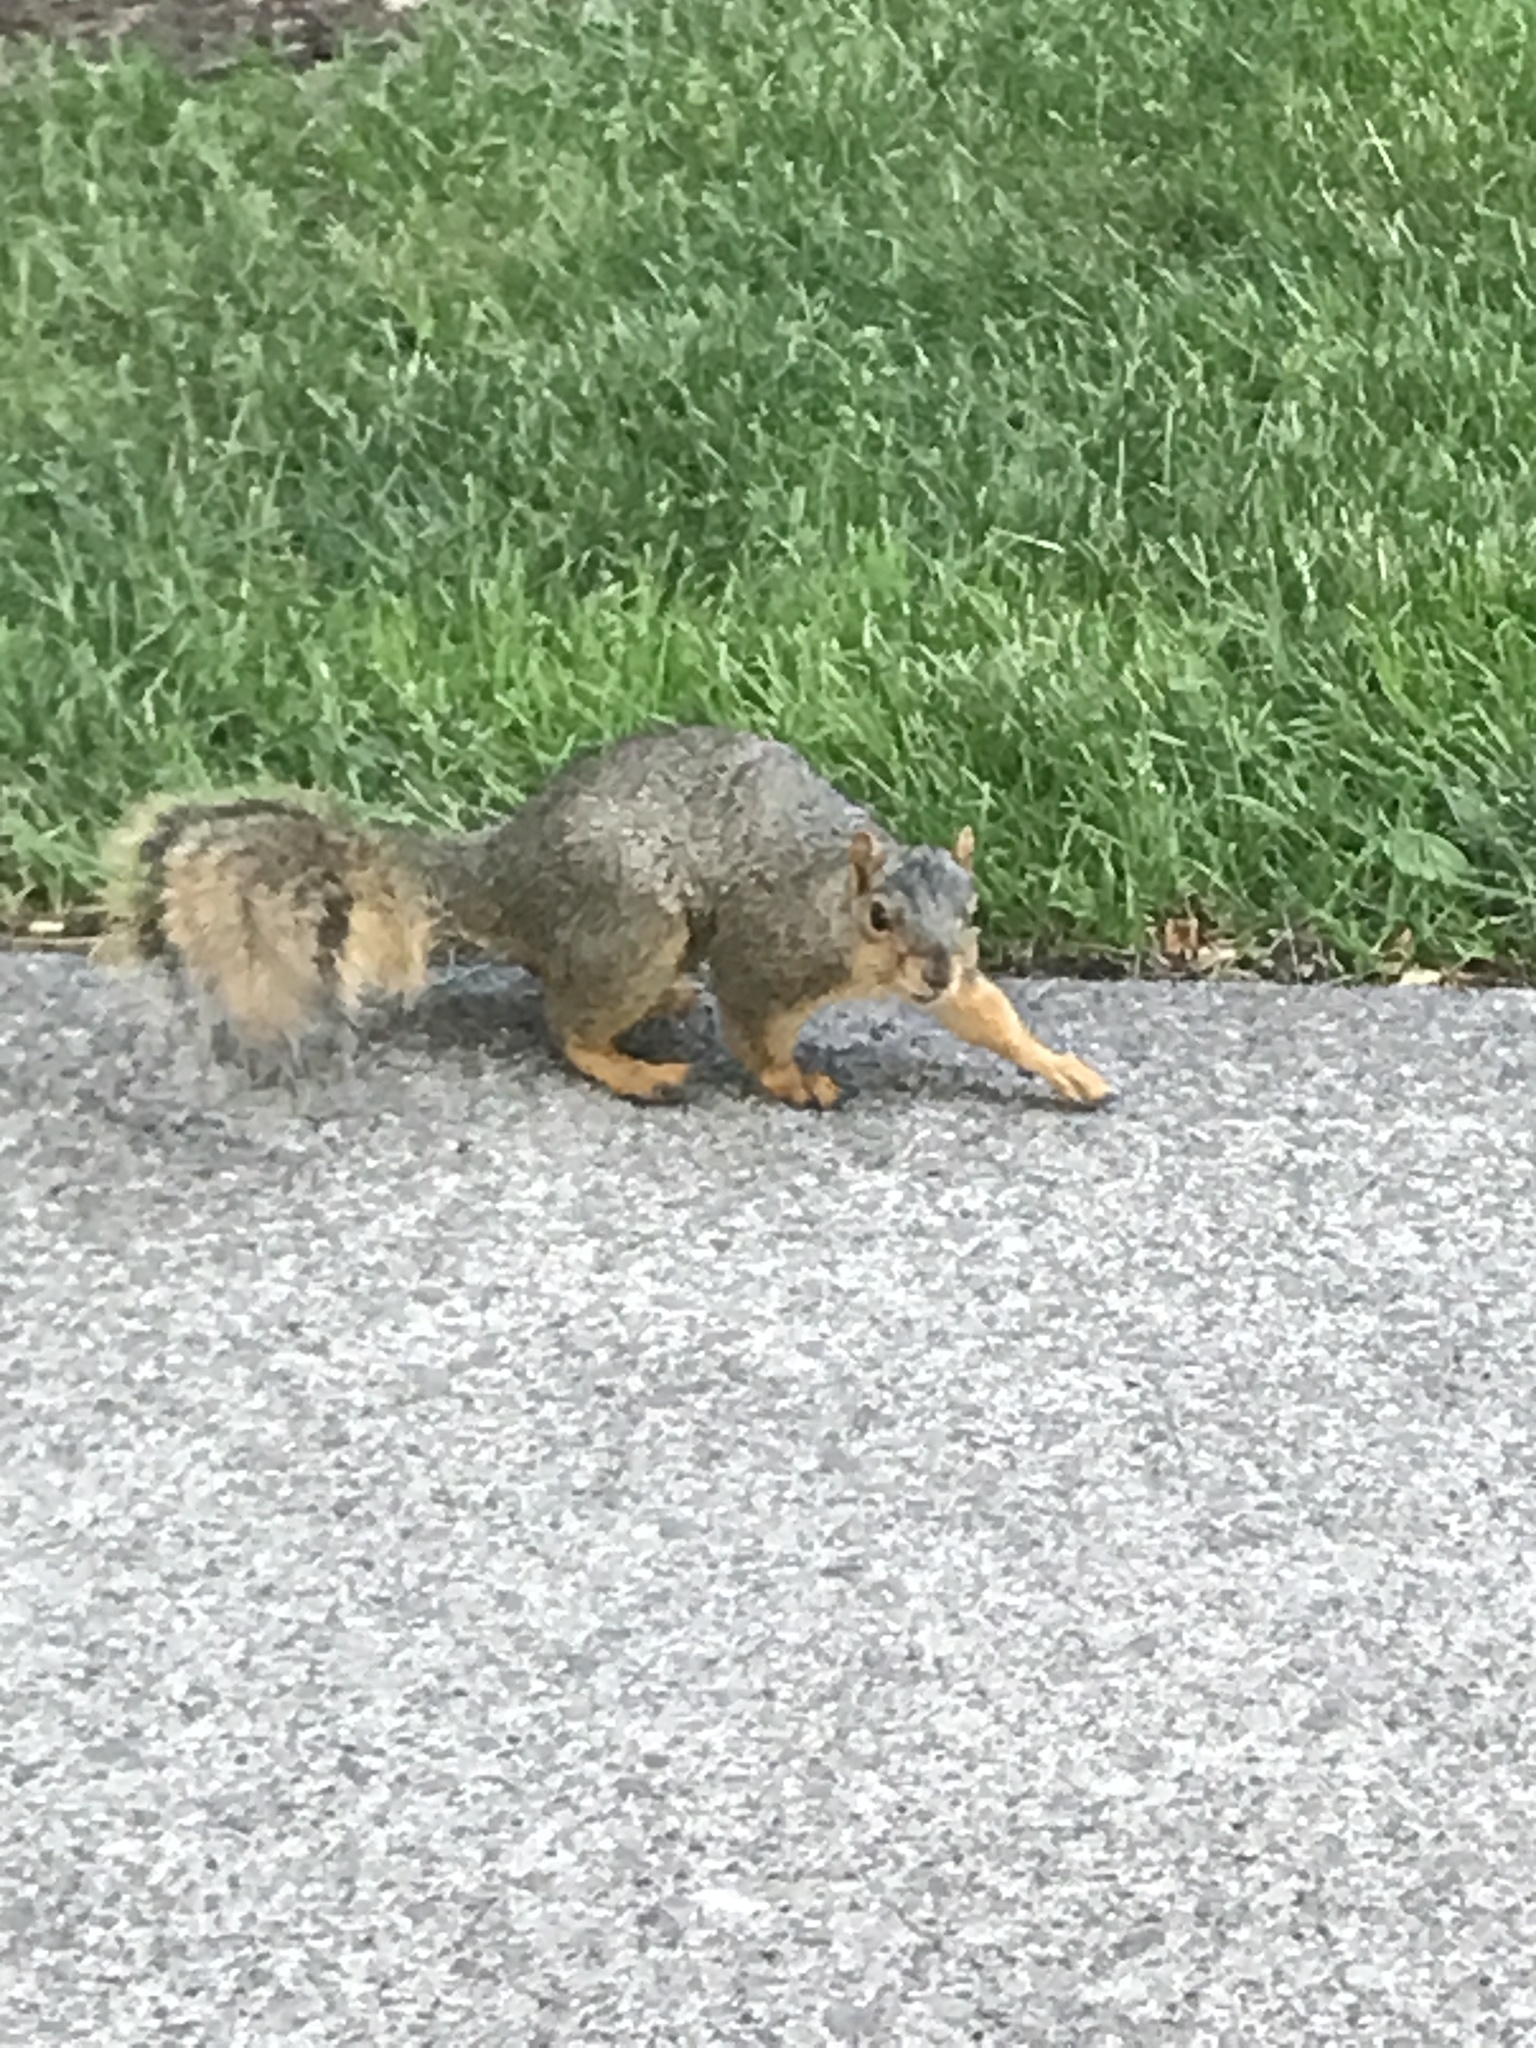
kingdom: Animalia
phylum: Chordata
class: Mammalia
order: Rodentia
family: Sciuridae
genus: Sciurus
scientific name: Sciurus niger
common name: Fox squirrel
